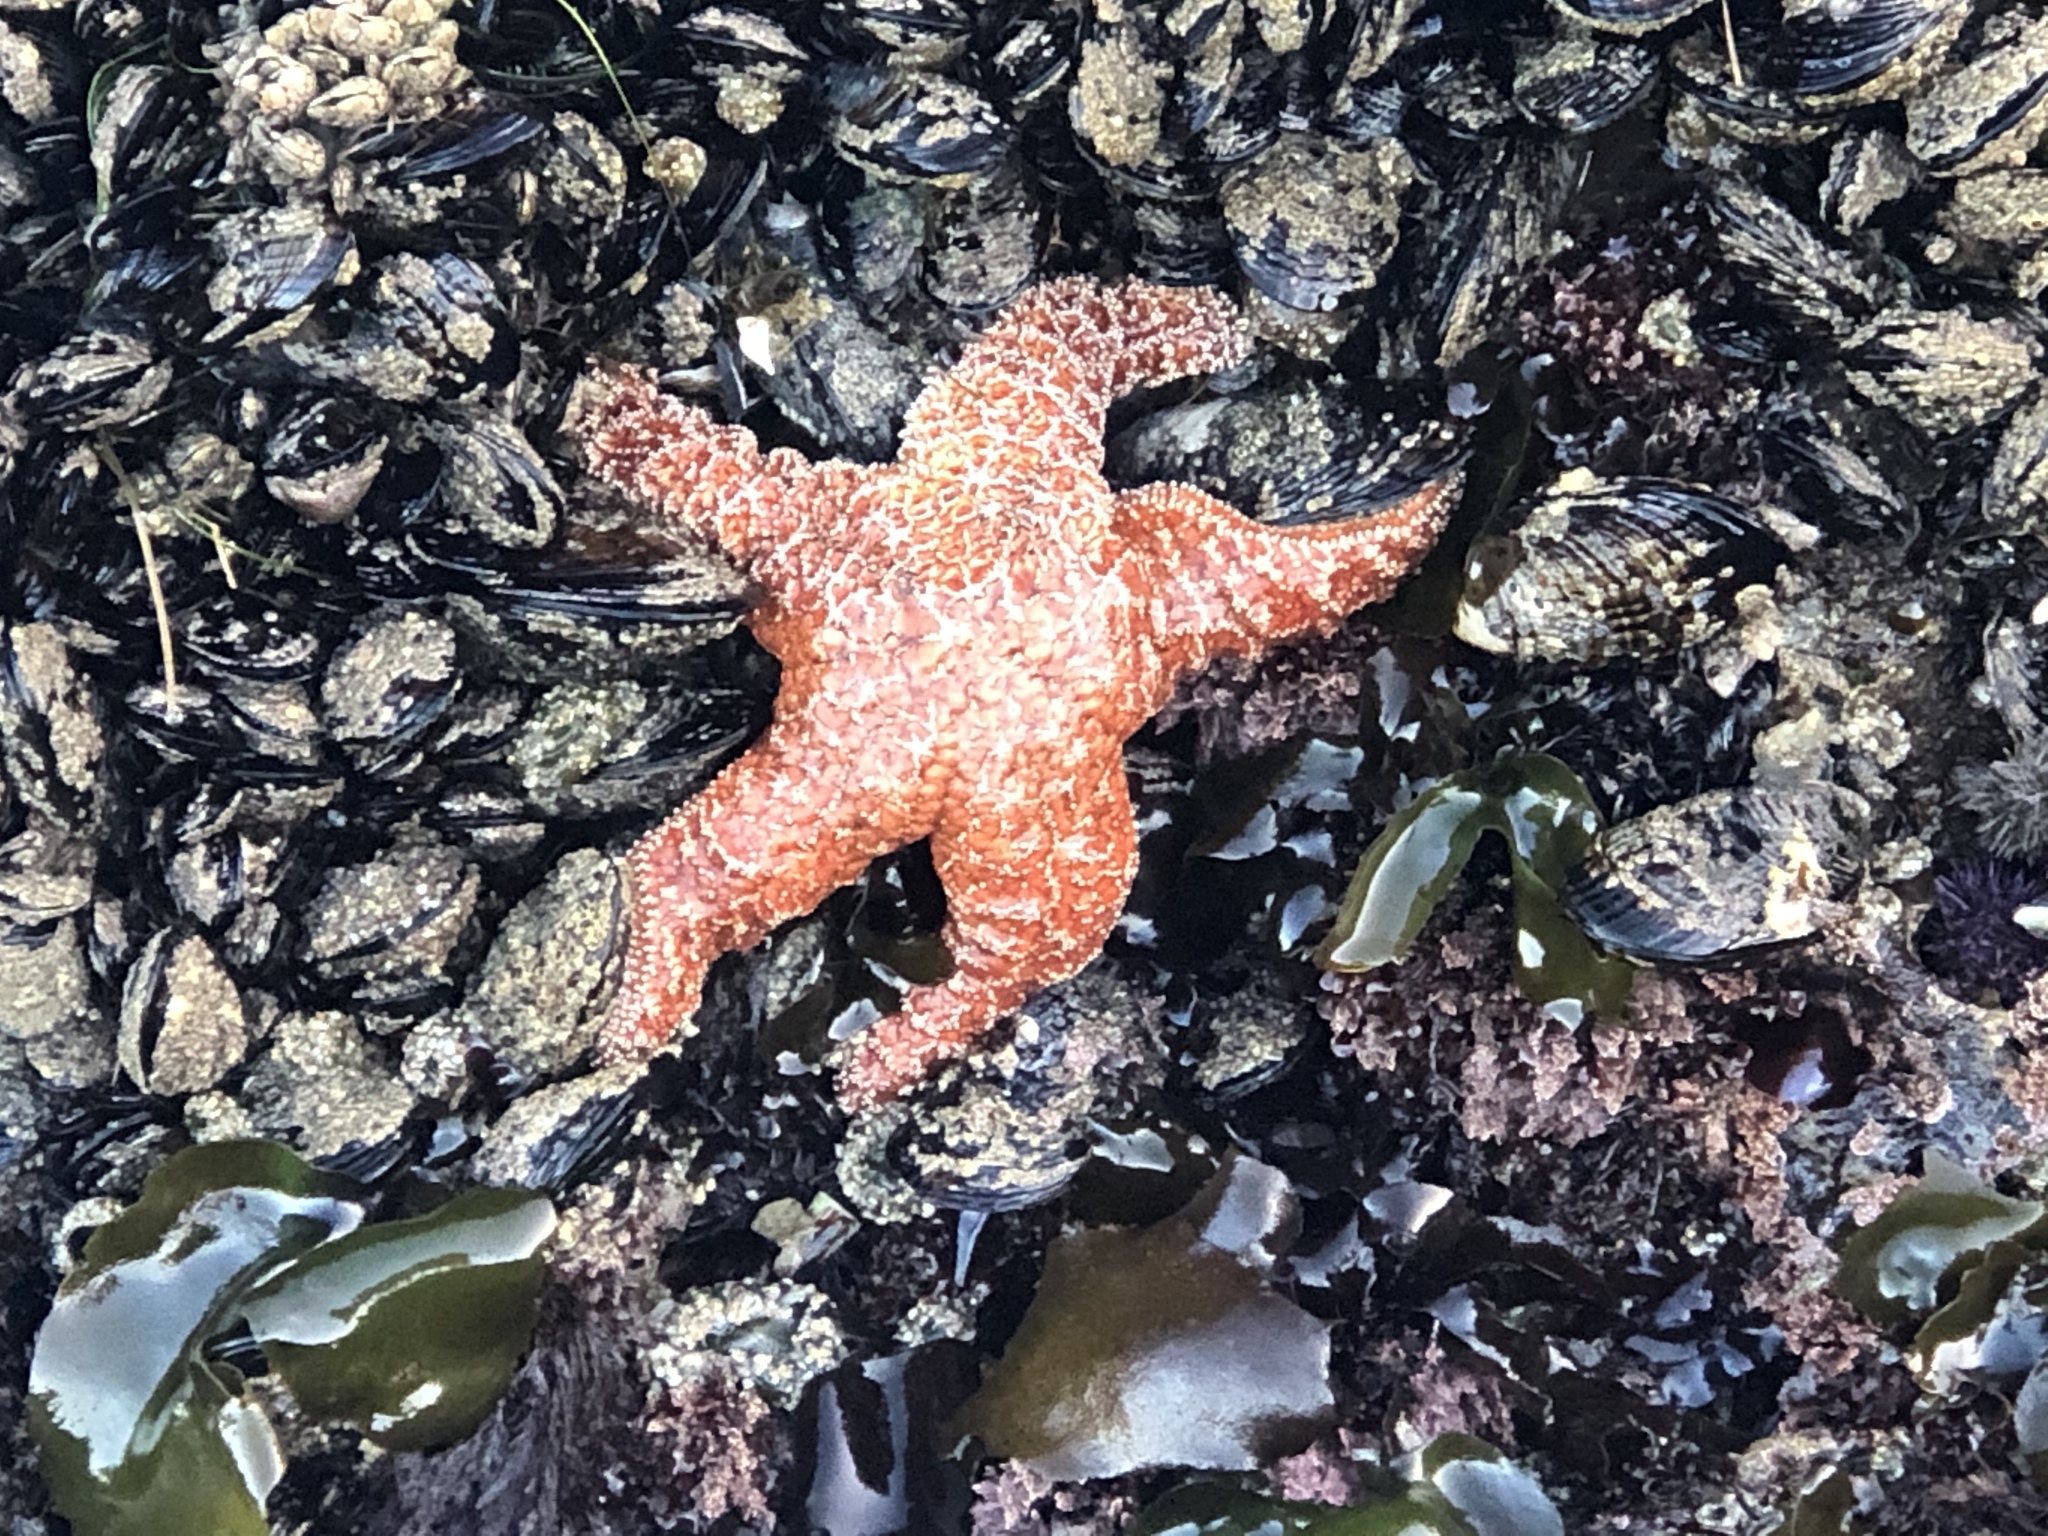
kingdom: Animalia
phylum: Echinodermata
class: Asteroidea
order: Forcipulatida
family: Asteriidae
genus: Pisaster
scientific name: Pisaster ochraceus
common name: Ochre stars
